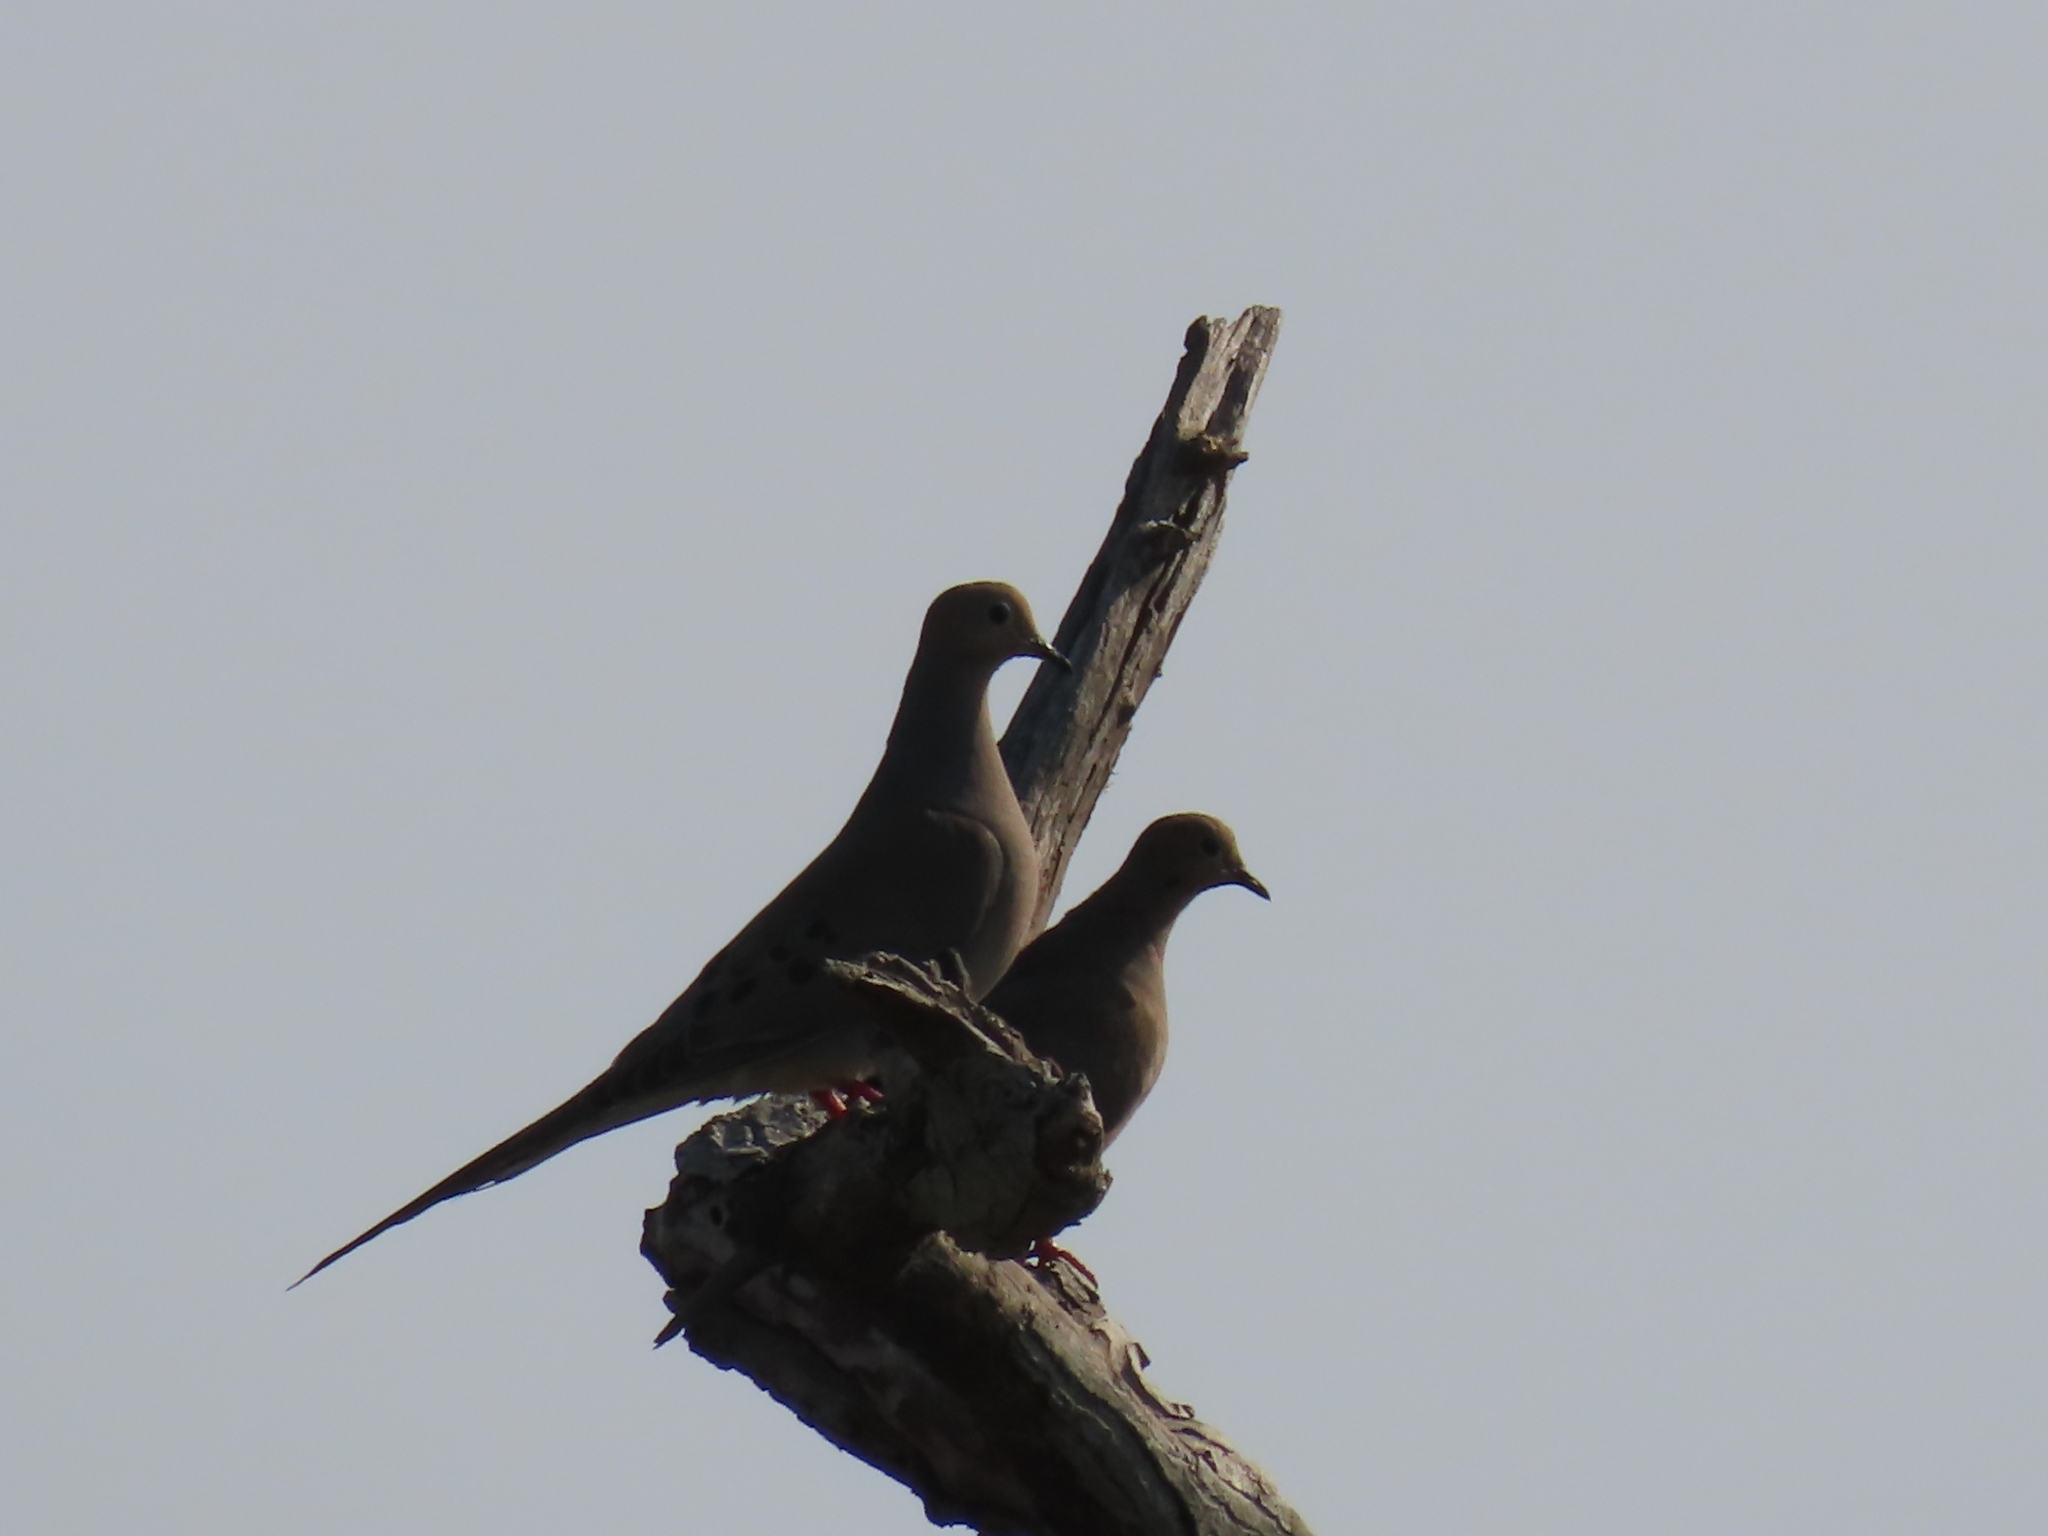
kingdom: Animalia
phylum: Chordata
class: Aves
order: Columbiformes
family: Columbidae
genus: Zenaida
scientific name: Zenaida macroura
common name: Mourning dove
